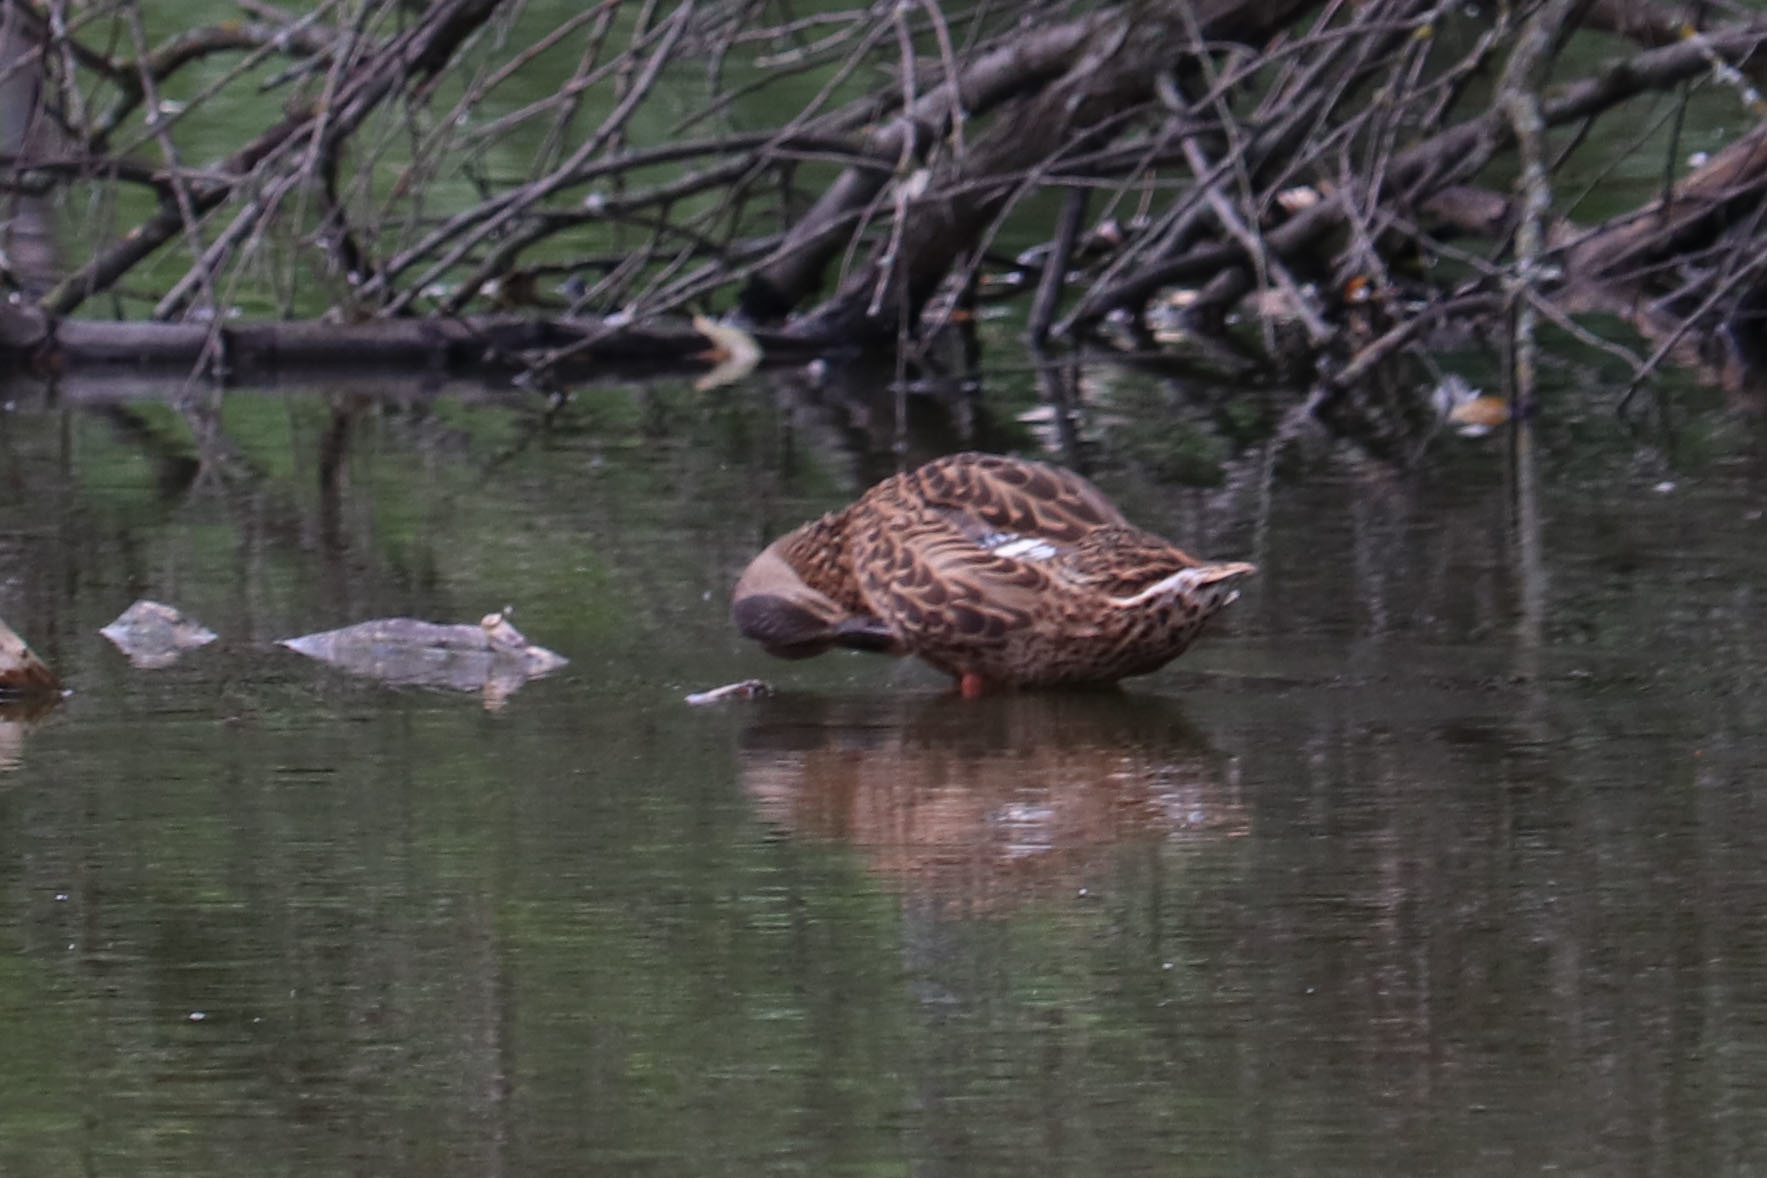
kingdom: Animalia
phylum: Chordata
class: Aves
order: Anseriformes
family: Anatidae
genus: Anas
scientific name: Anas platyrhynchos
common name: Mallard
